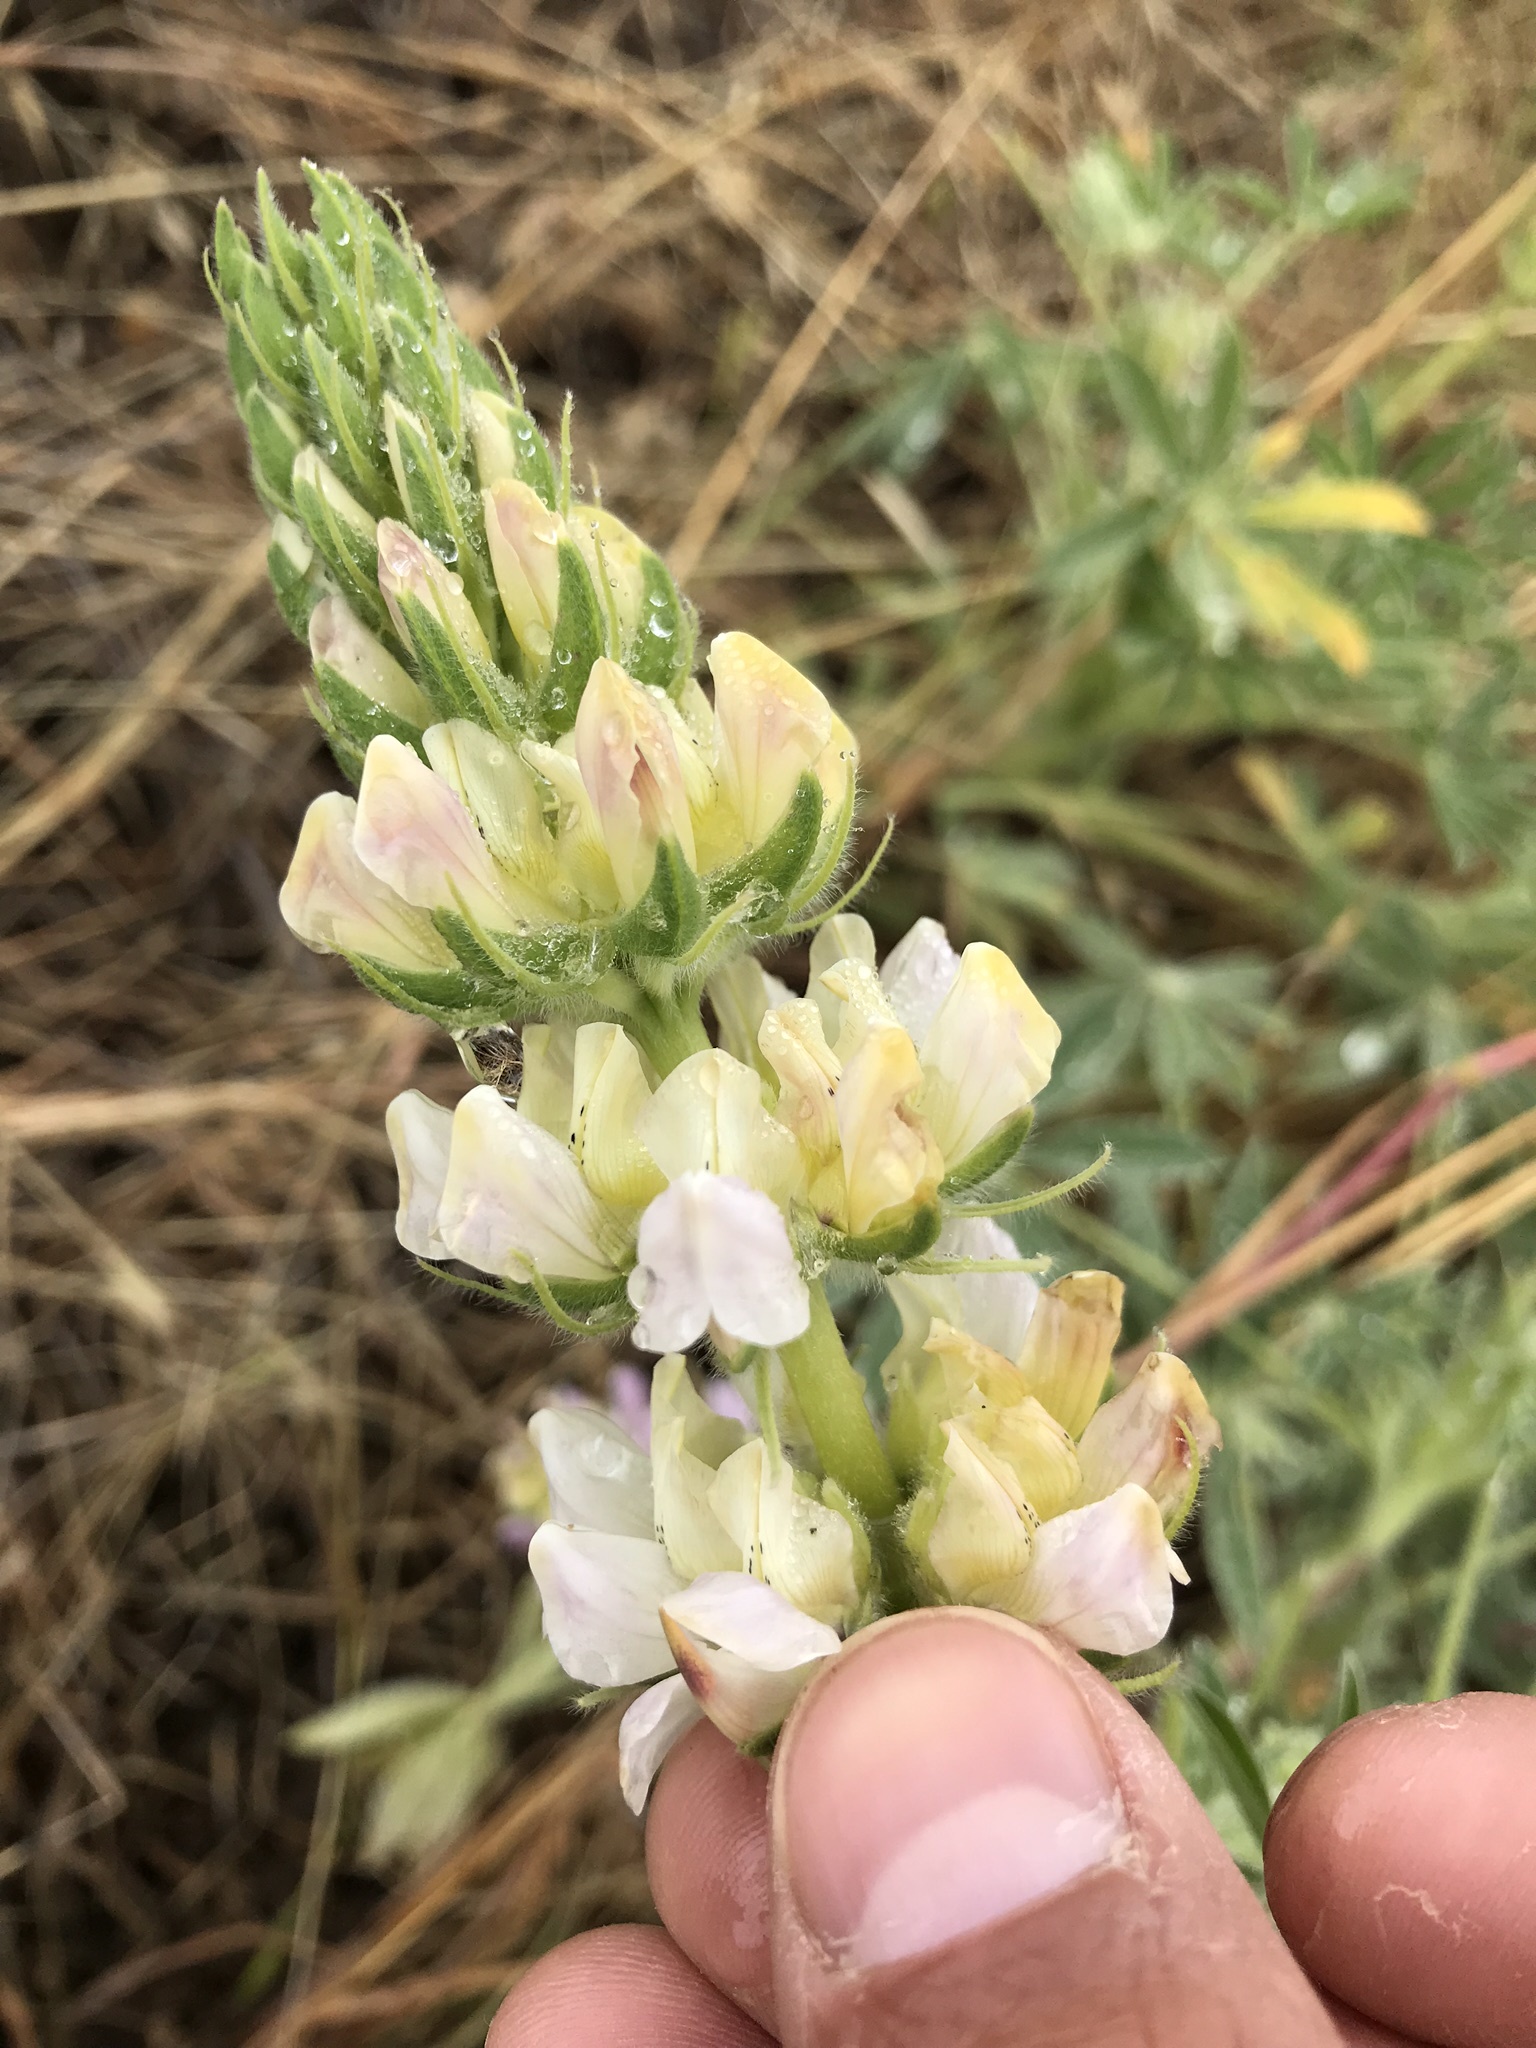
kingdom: Plantae
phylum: Tracheophyta
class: Magnoliopsida
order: Fabales
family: Fabaceae
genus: Lupinus
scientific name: Lupinus microcarpus
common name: Chick lupine
